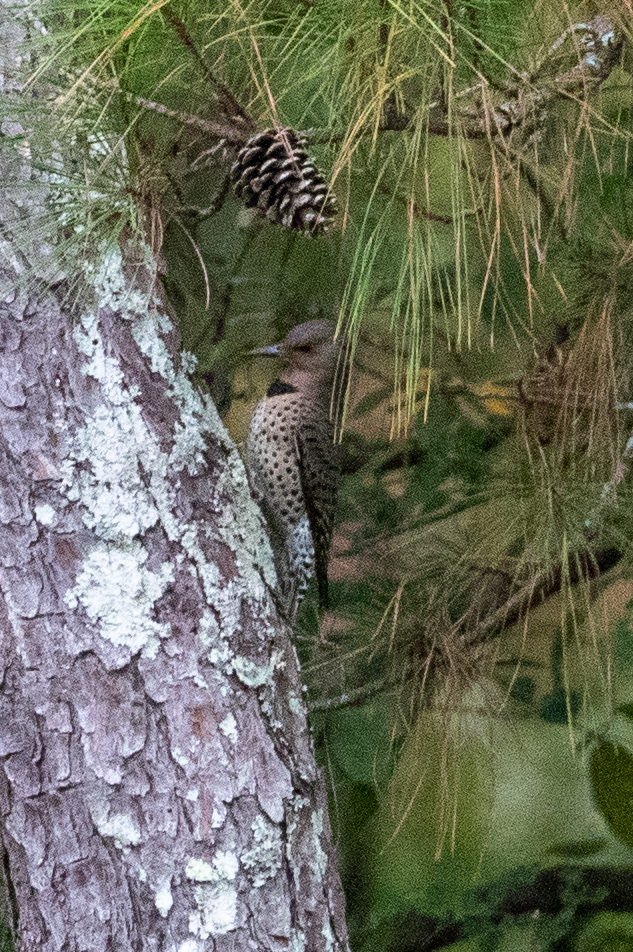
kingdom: Animalia
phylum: Chordata
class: Aves
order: Piciformes
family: Picidae
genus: Colaptes
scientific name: Colaptes auratus
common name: Northern flicker
